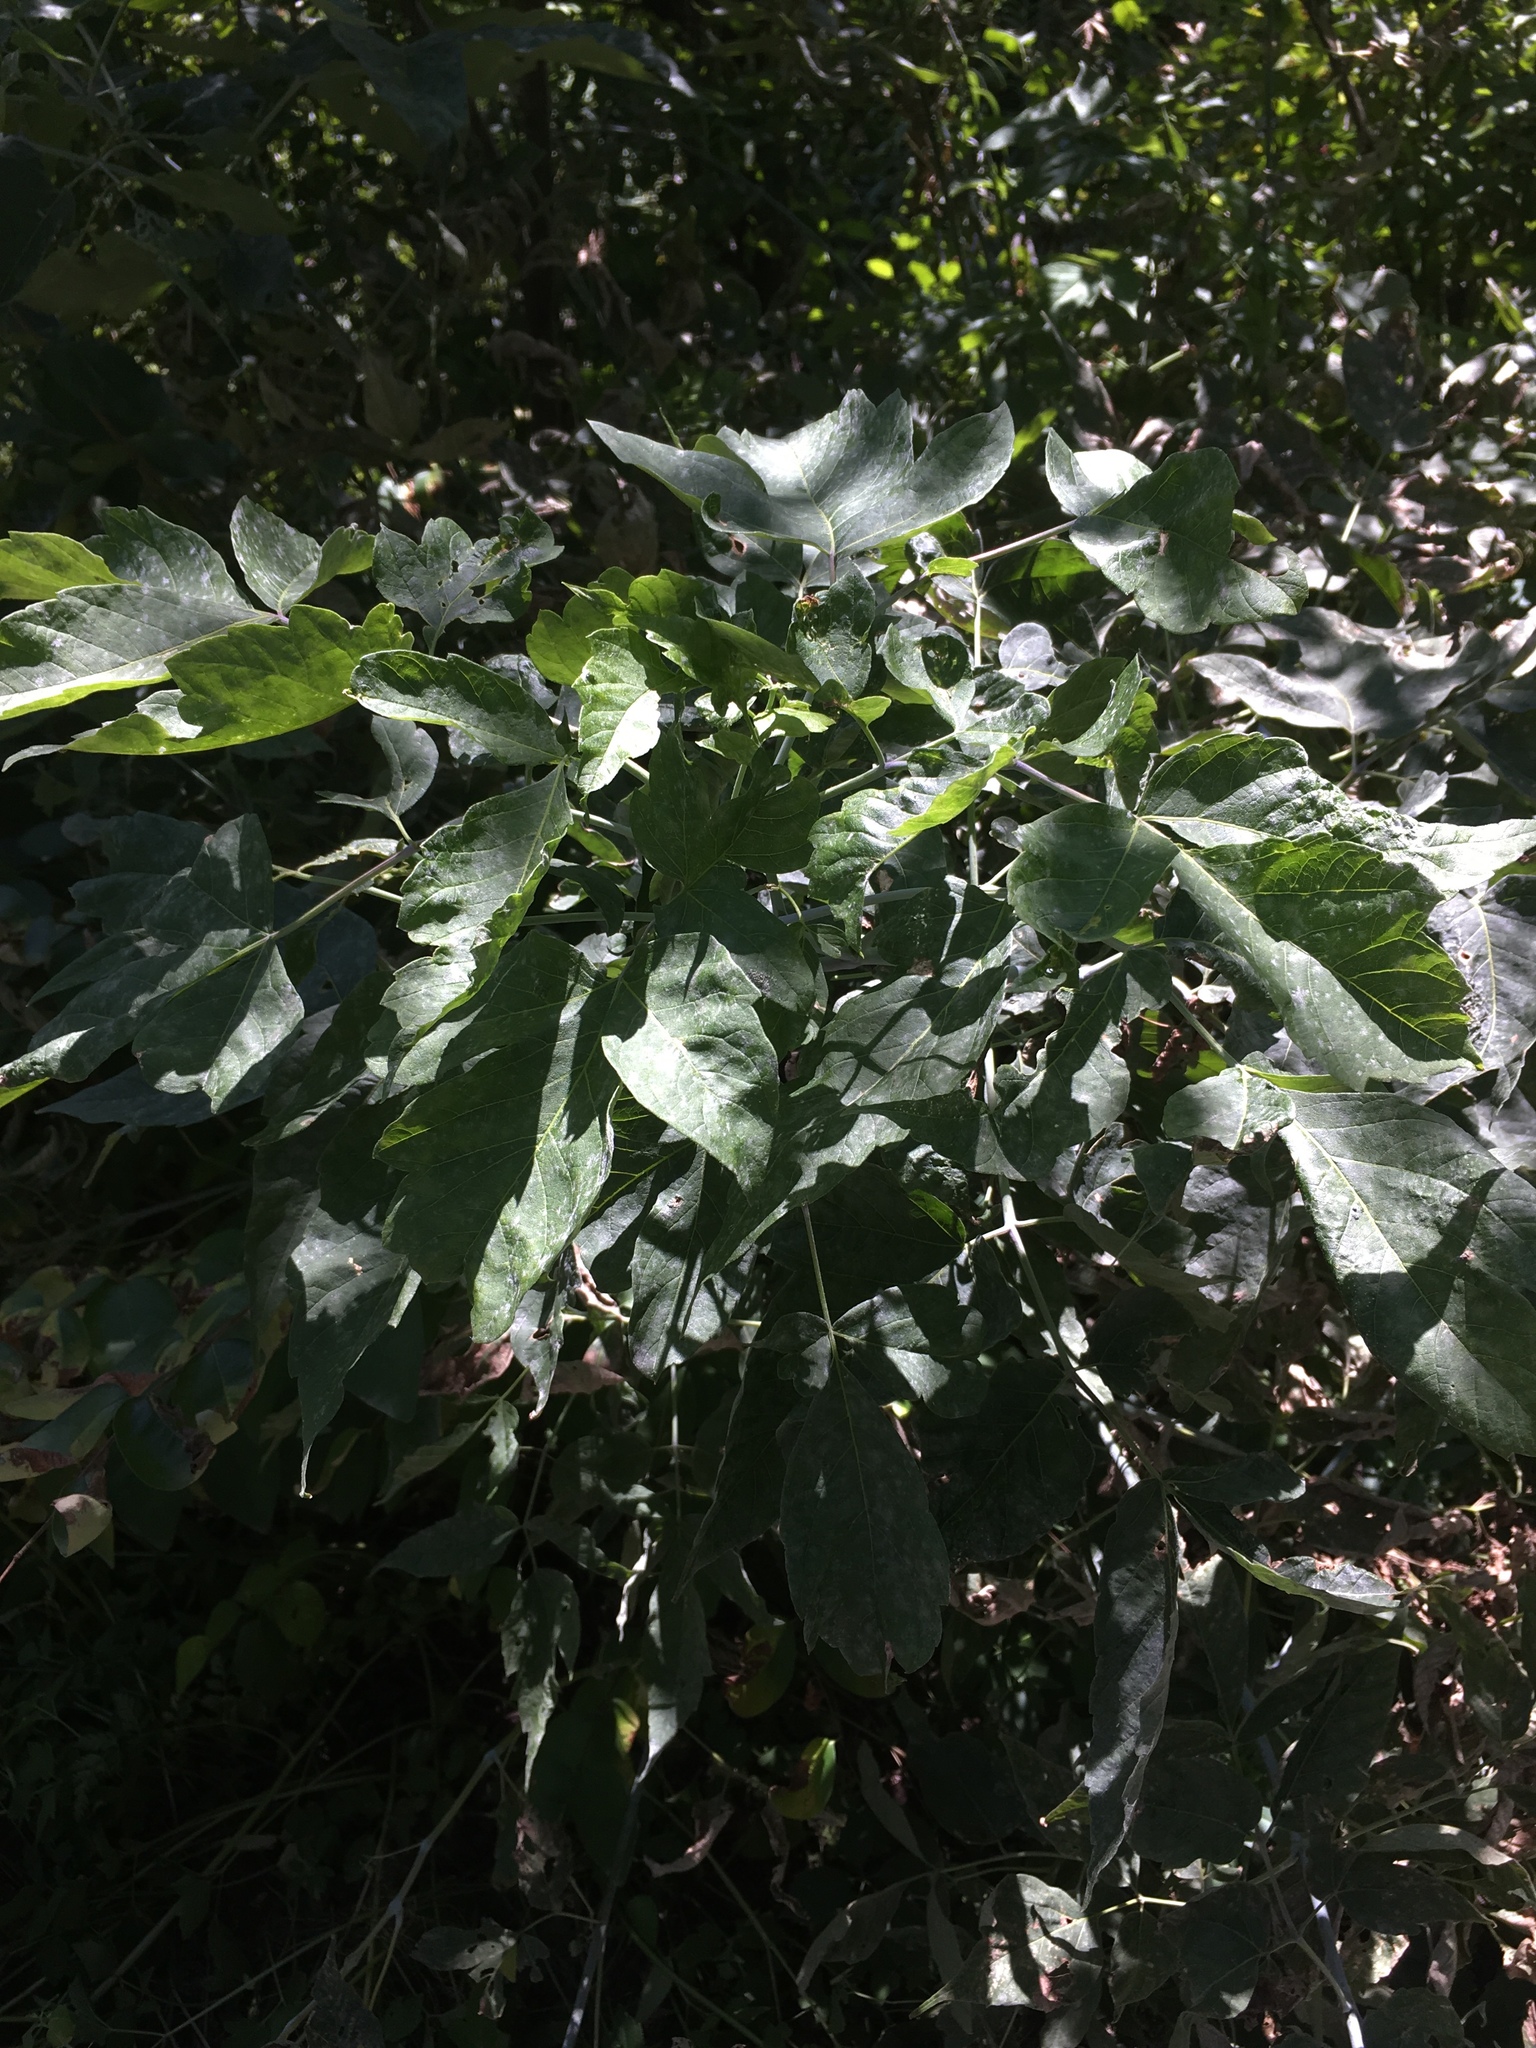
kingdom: Plantae
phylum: Tracheophyta
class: Magnoliopsida
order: Sapindales
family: Sapindaceae
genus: Acer
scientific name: Acer negundo
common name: Ashleaf maple
